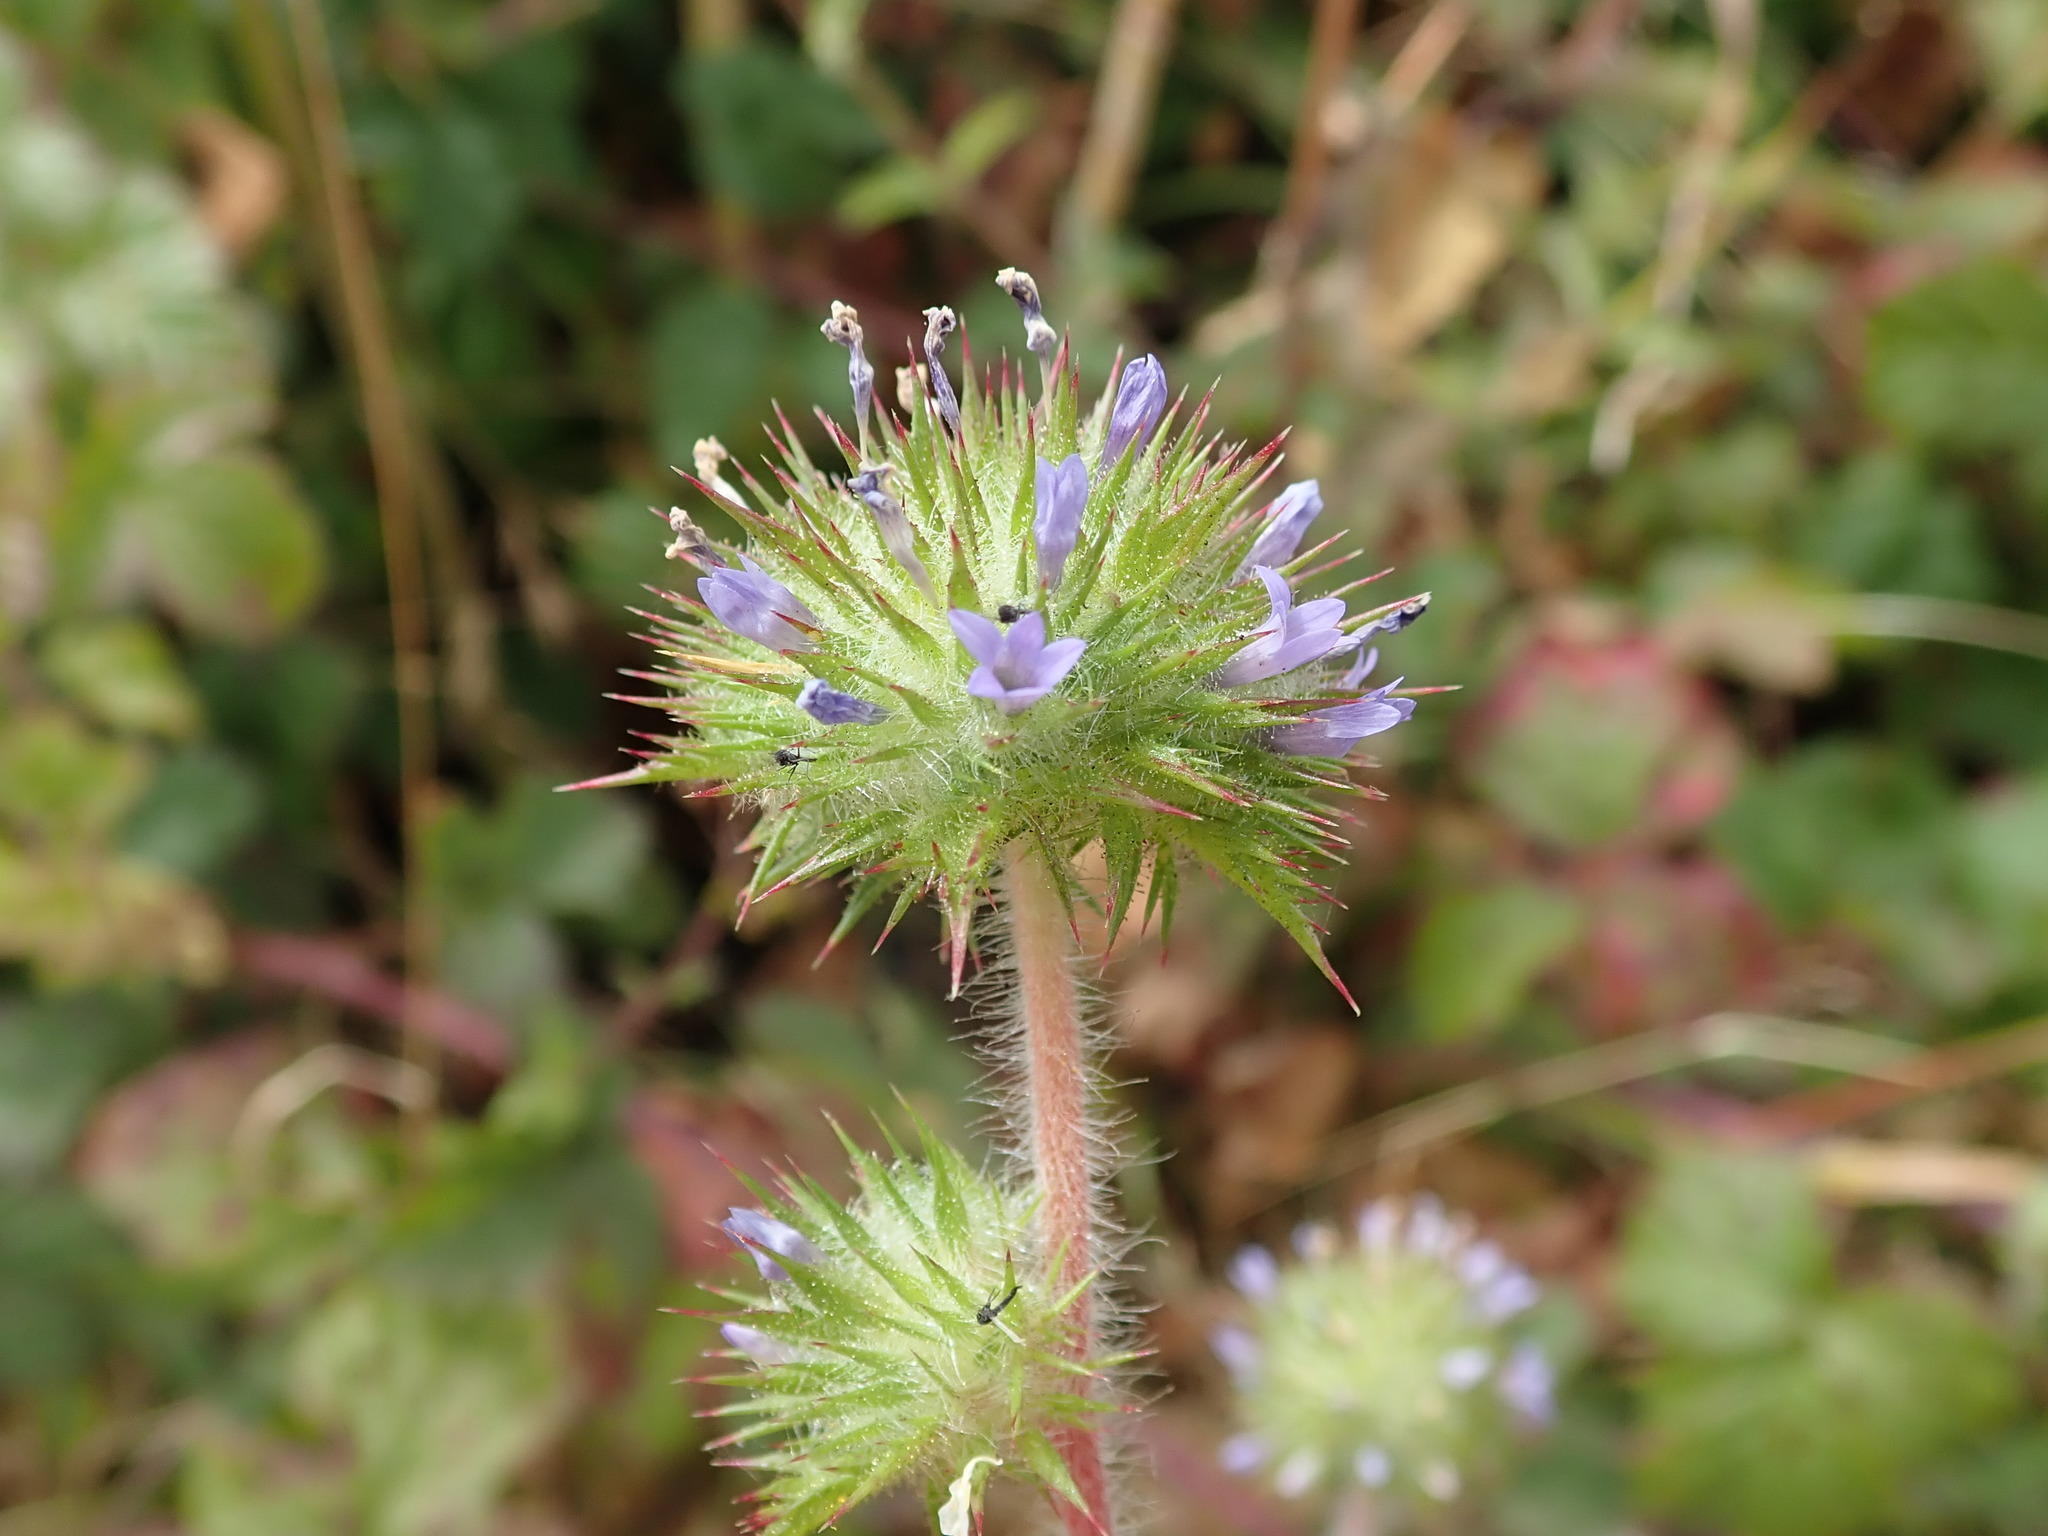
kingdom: Plantae
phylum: Tracheophyta
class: Magnoliopsida
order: Ericales
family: Polemoniaceae
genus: Navarretia
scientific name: Navarretia squarrosa
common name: Skunkweed
